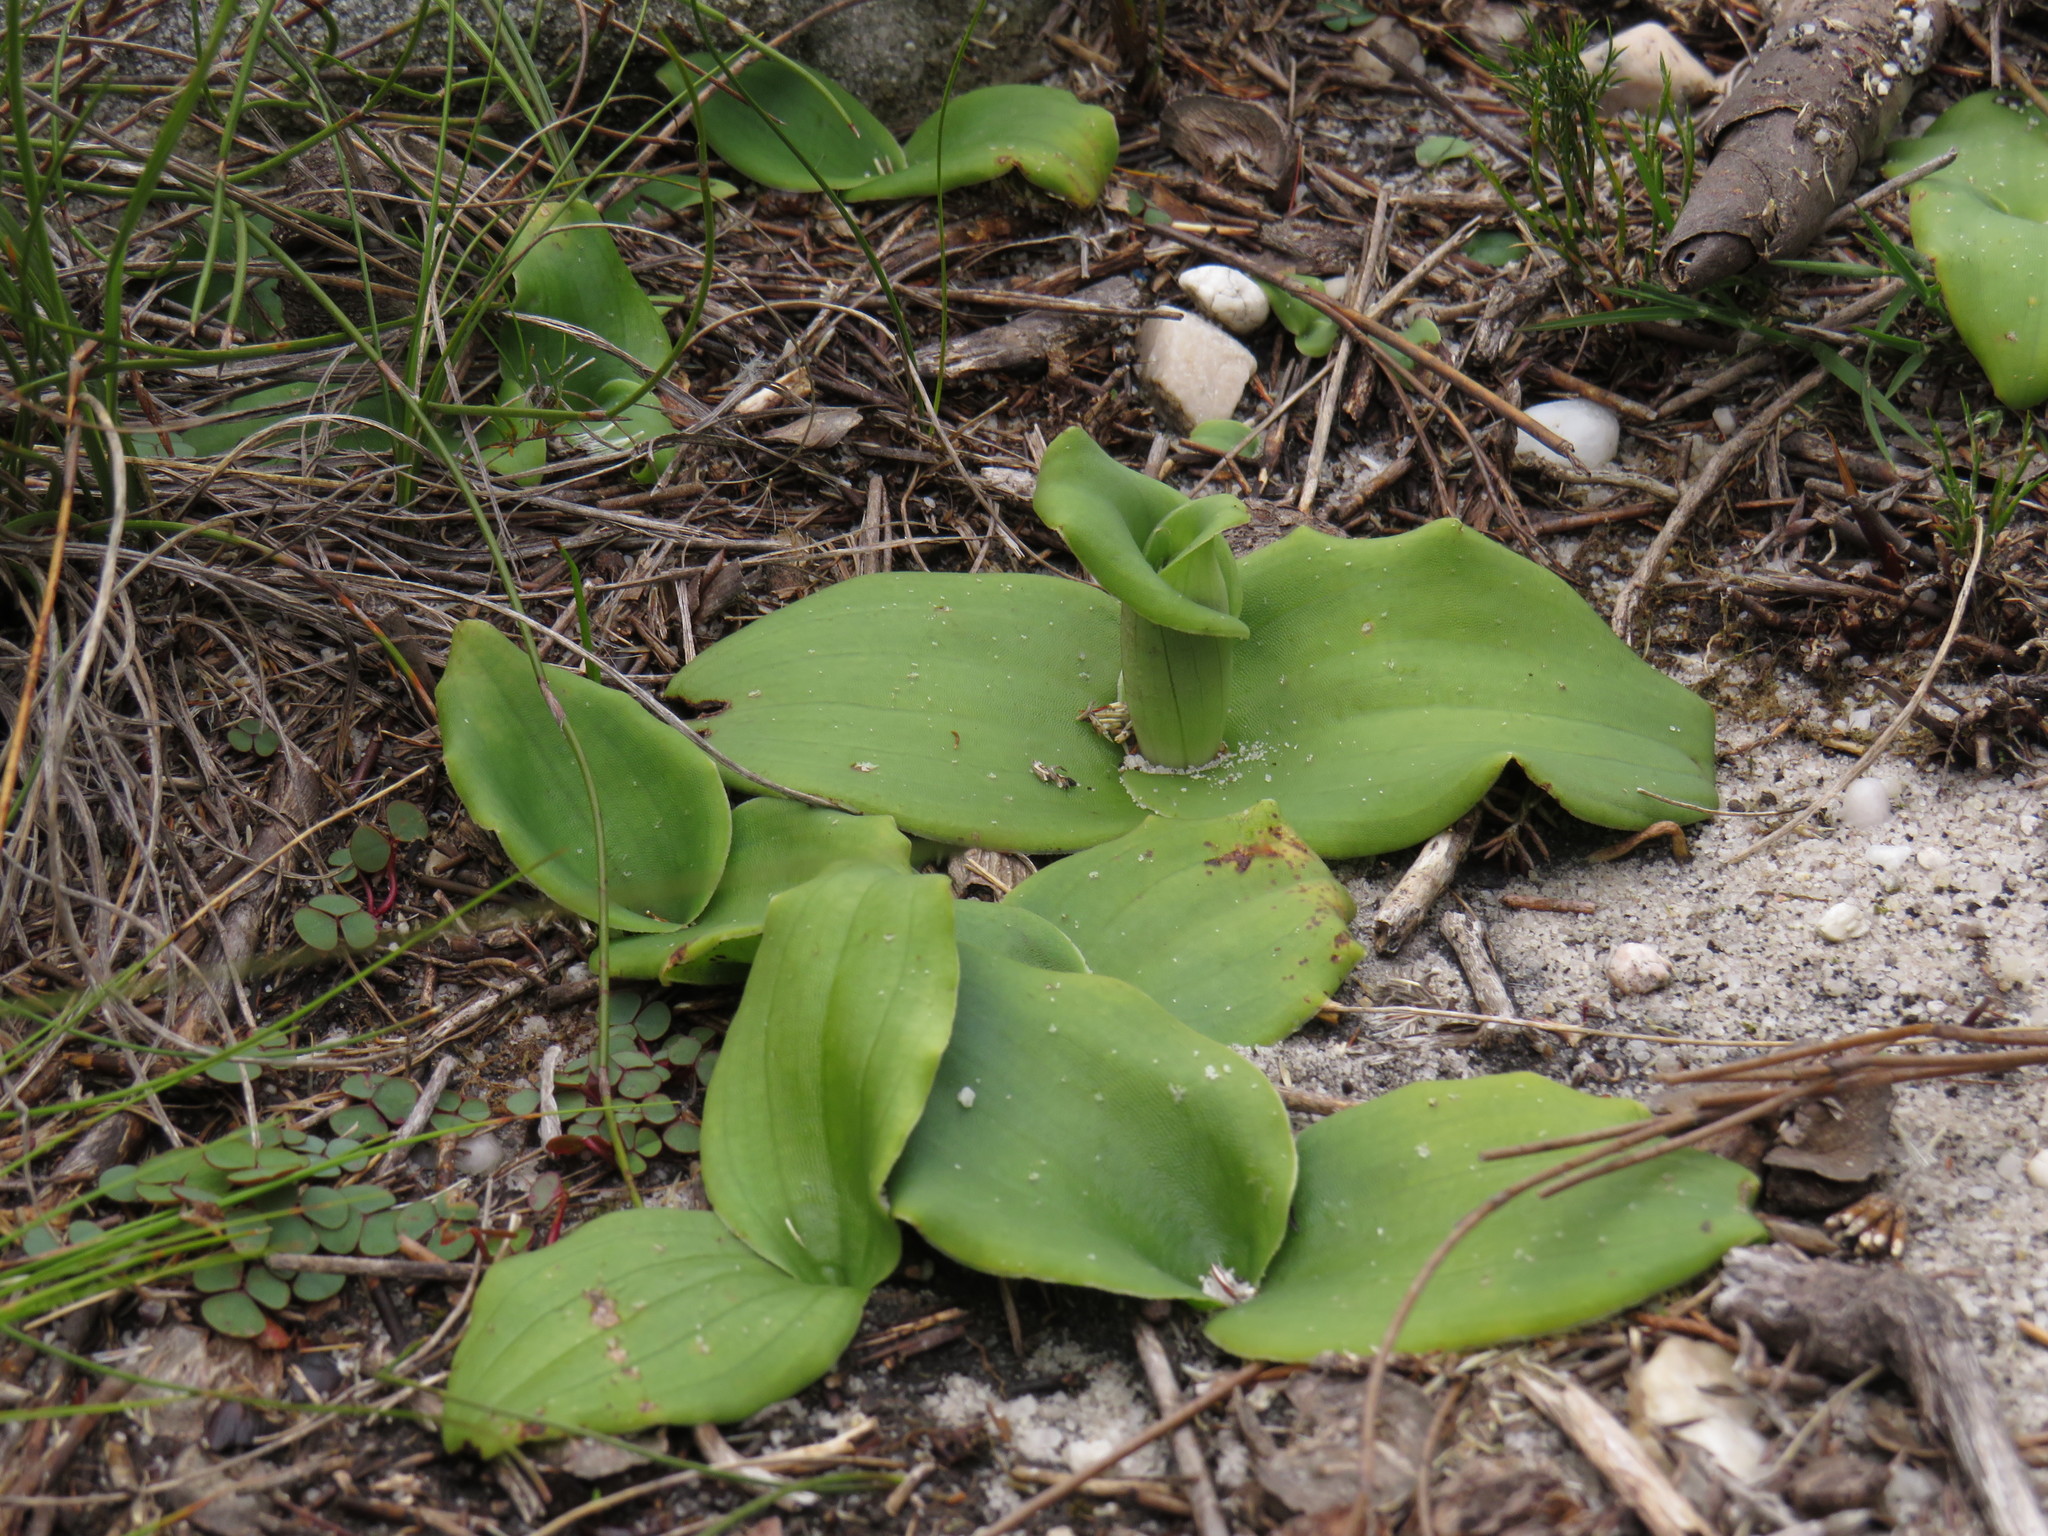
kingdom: Plantae
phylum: Tracheophyta
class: Liliopsida
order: Asparagales
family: Orchidaceae
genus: Satyrium
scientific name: Satyrium humile
